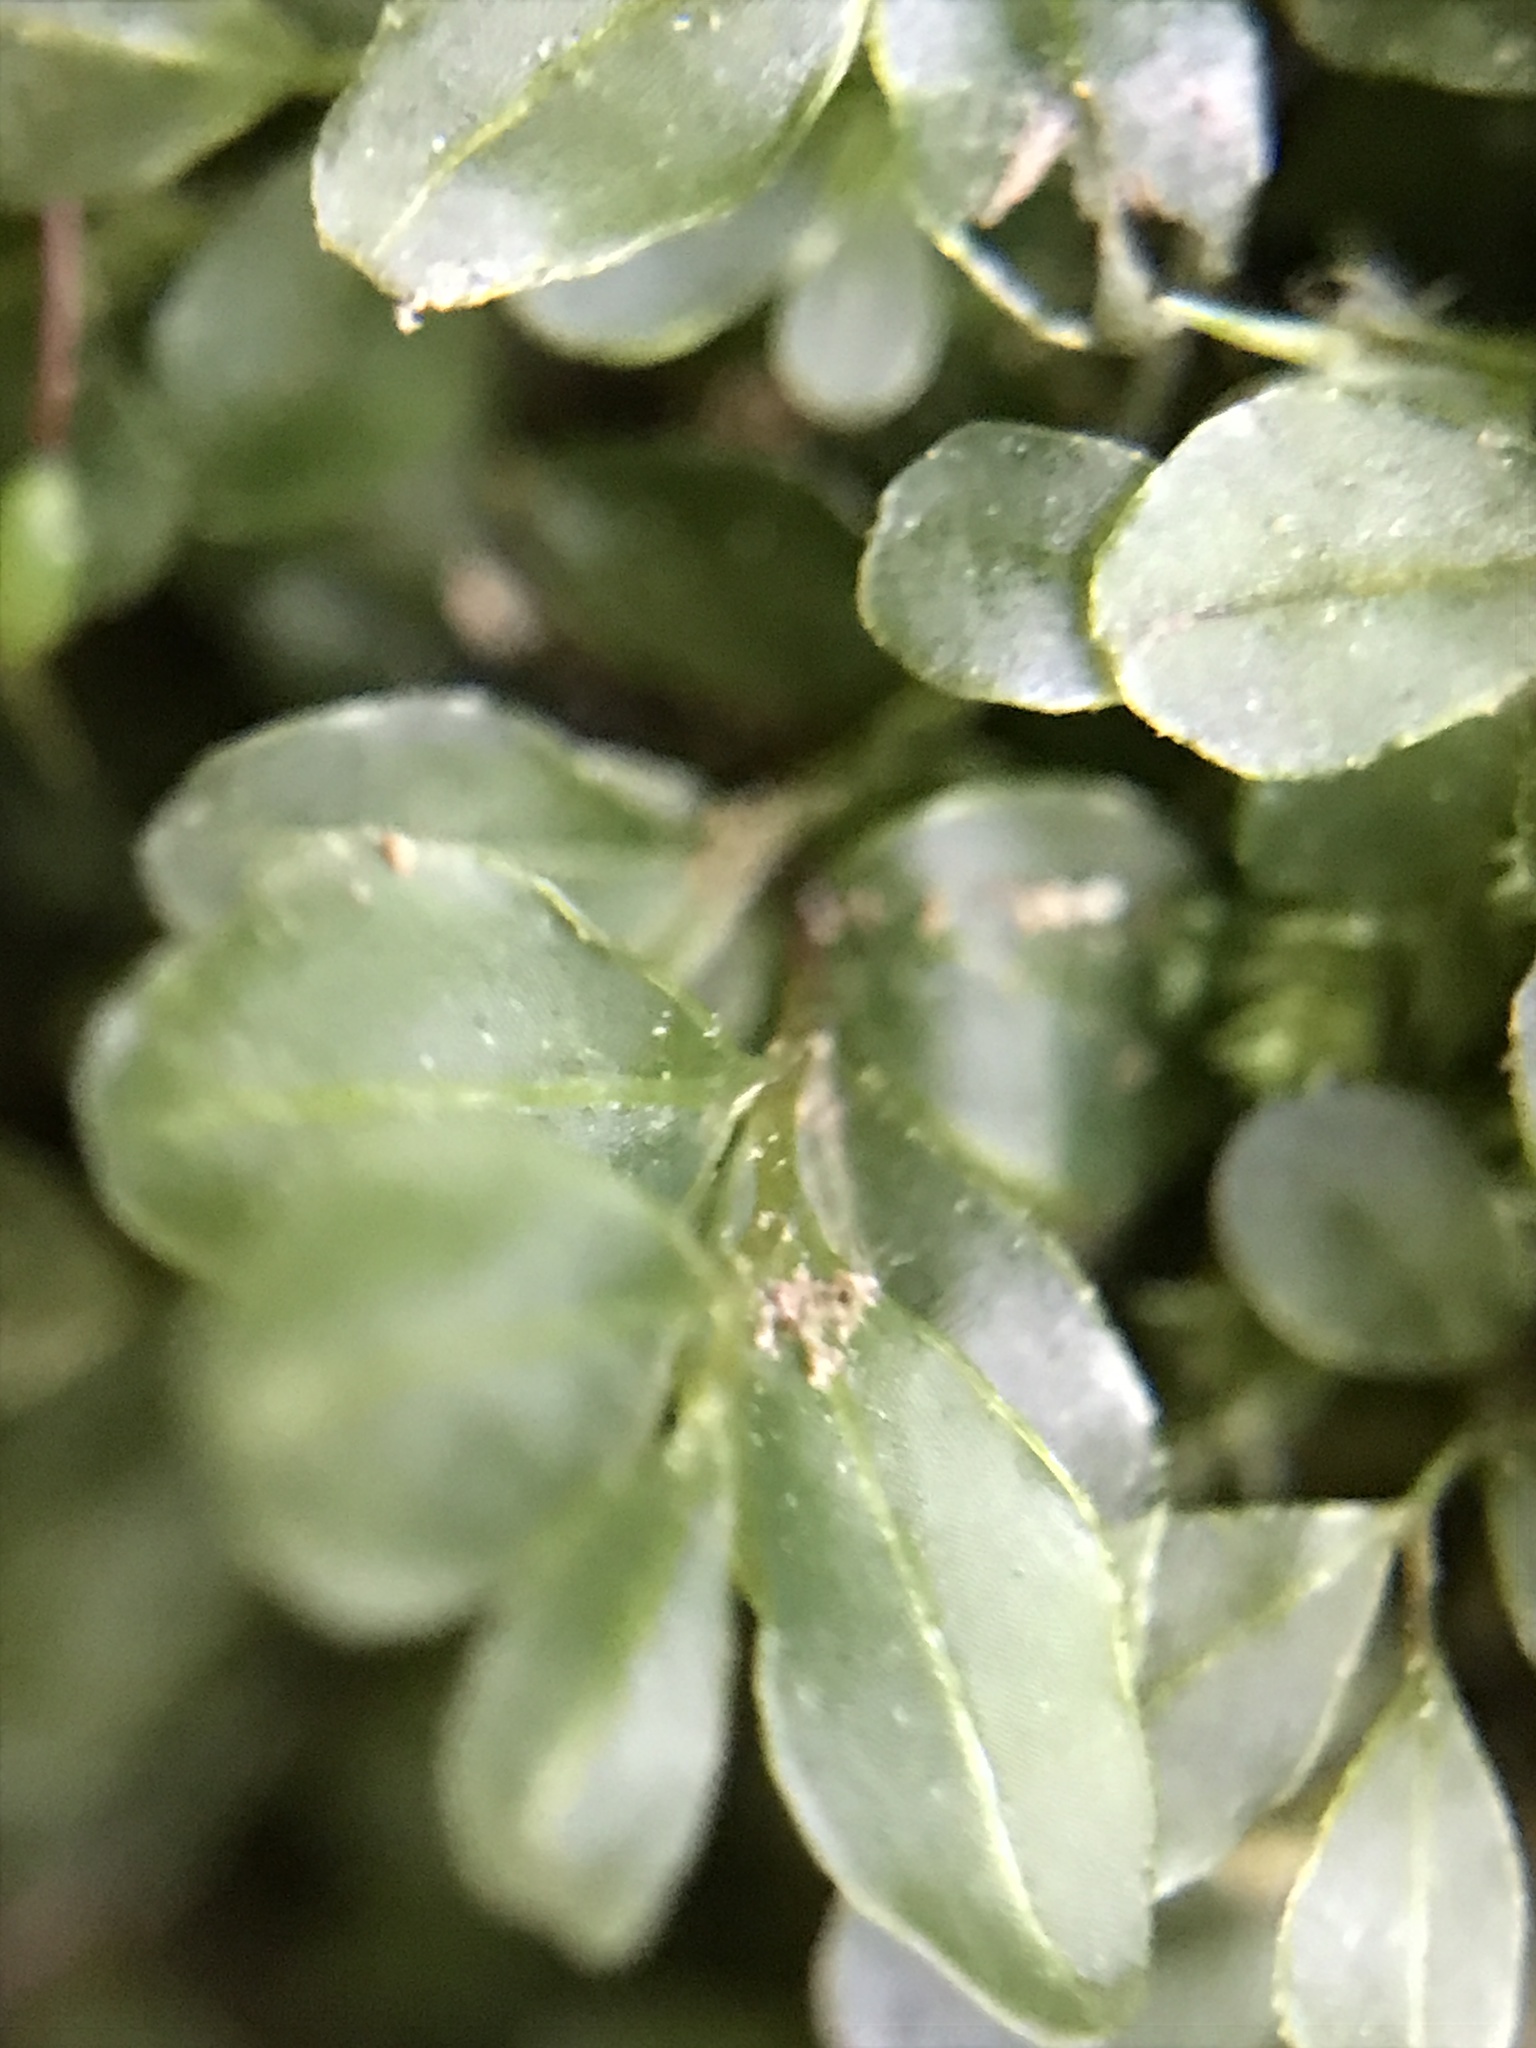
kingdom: Plantae
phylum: Bryophyta
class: Bryopsida
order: Bryales
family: Mniaceae
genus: Rhizomnium
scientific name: Rhizomnium punctatum
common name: Dotted leafy moss
